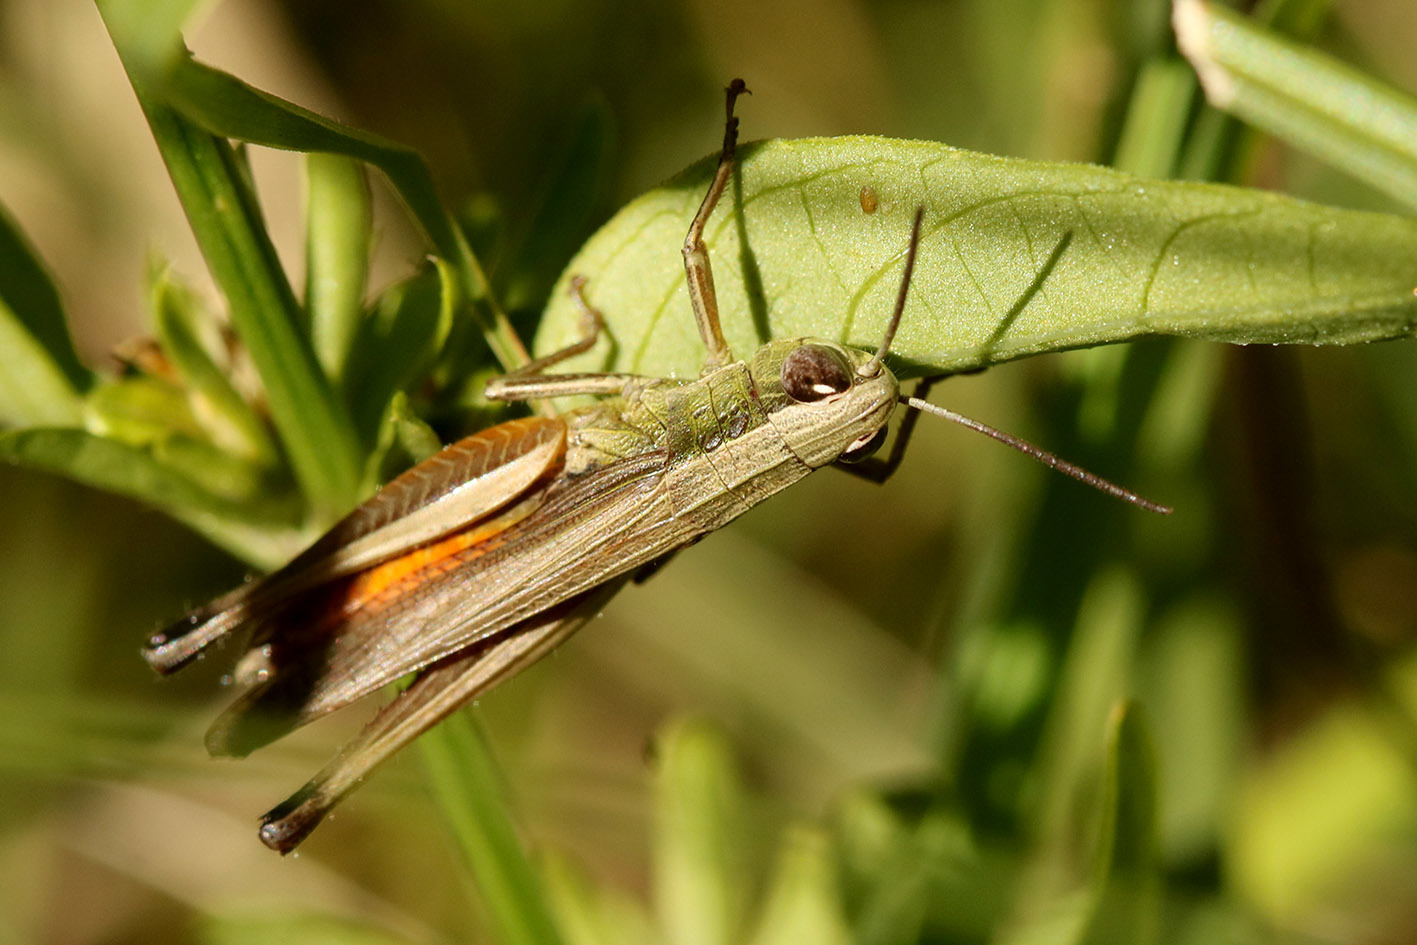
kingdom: Animalia
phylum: Arthropoda
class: Insecta
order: Orthoptera
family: Acrididae
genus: Amblytropidia
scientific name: Amblytropidia australis
